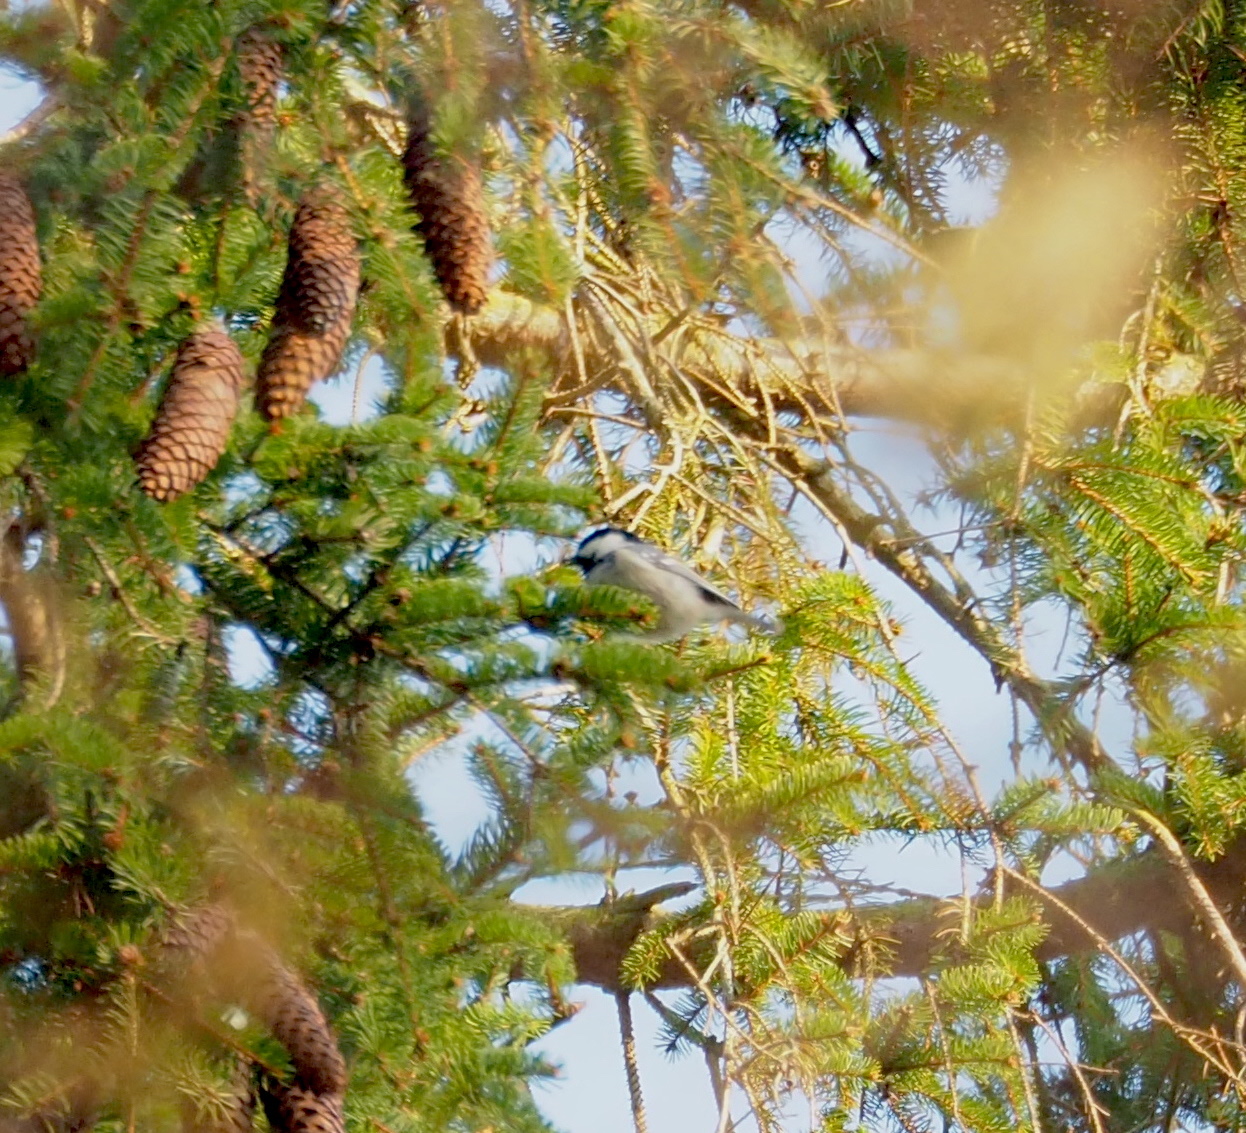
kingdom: Animalia
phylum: Chordata
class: Aves
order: Passeriformes
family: Paridae
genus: Periparus
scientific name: Periparus ater
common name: Coal tit
